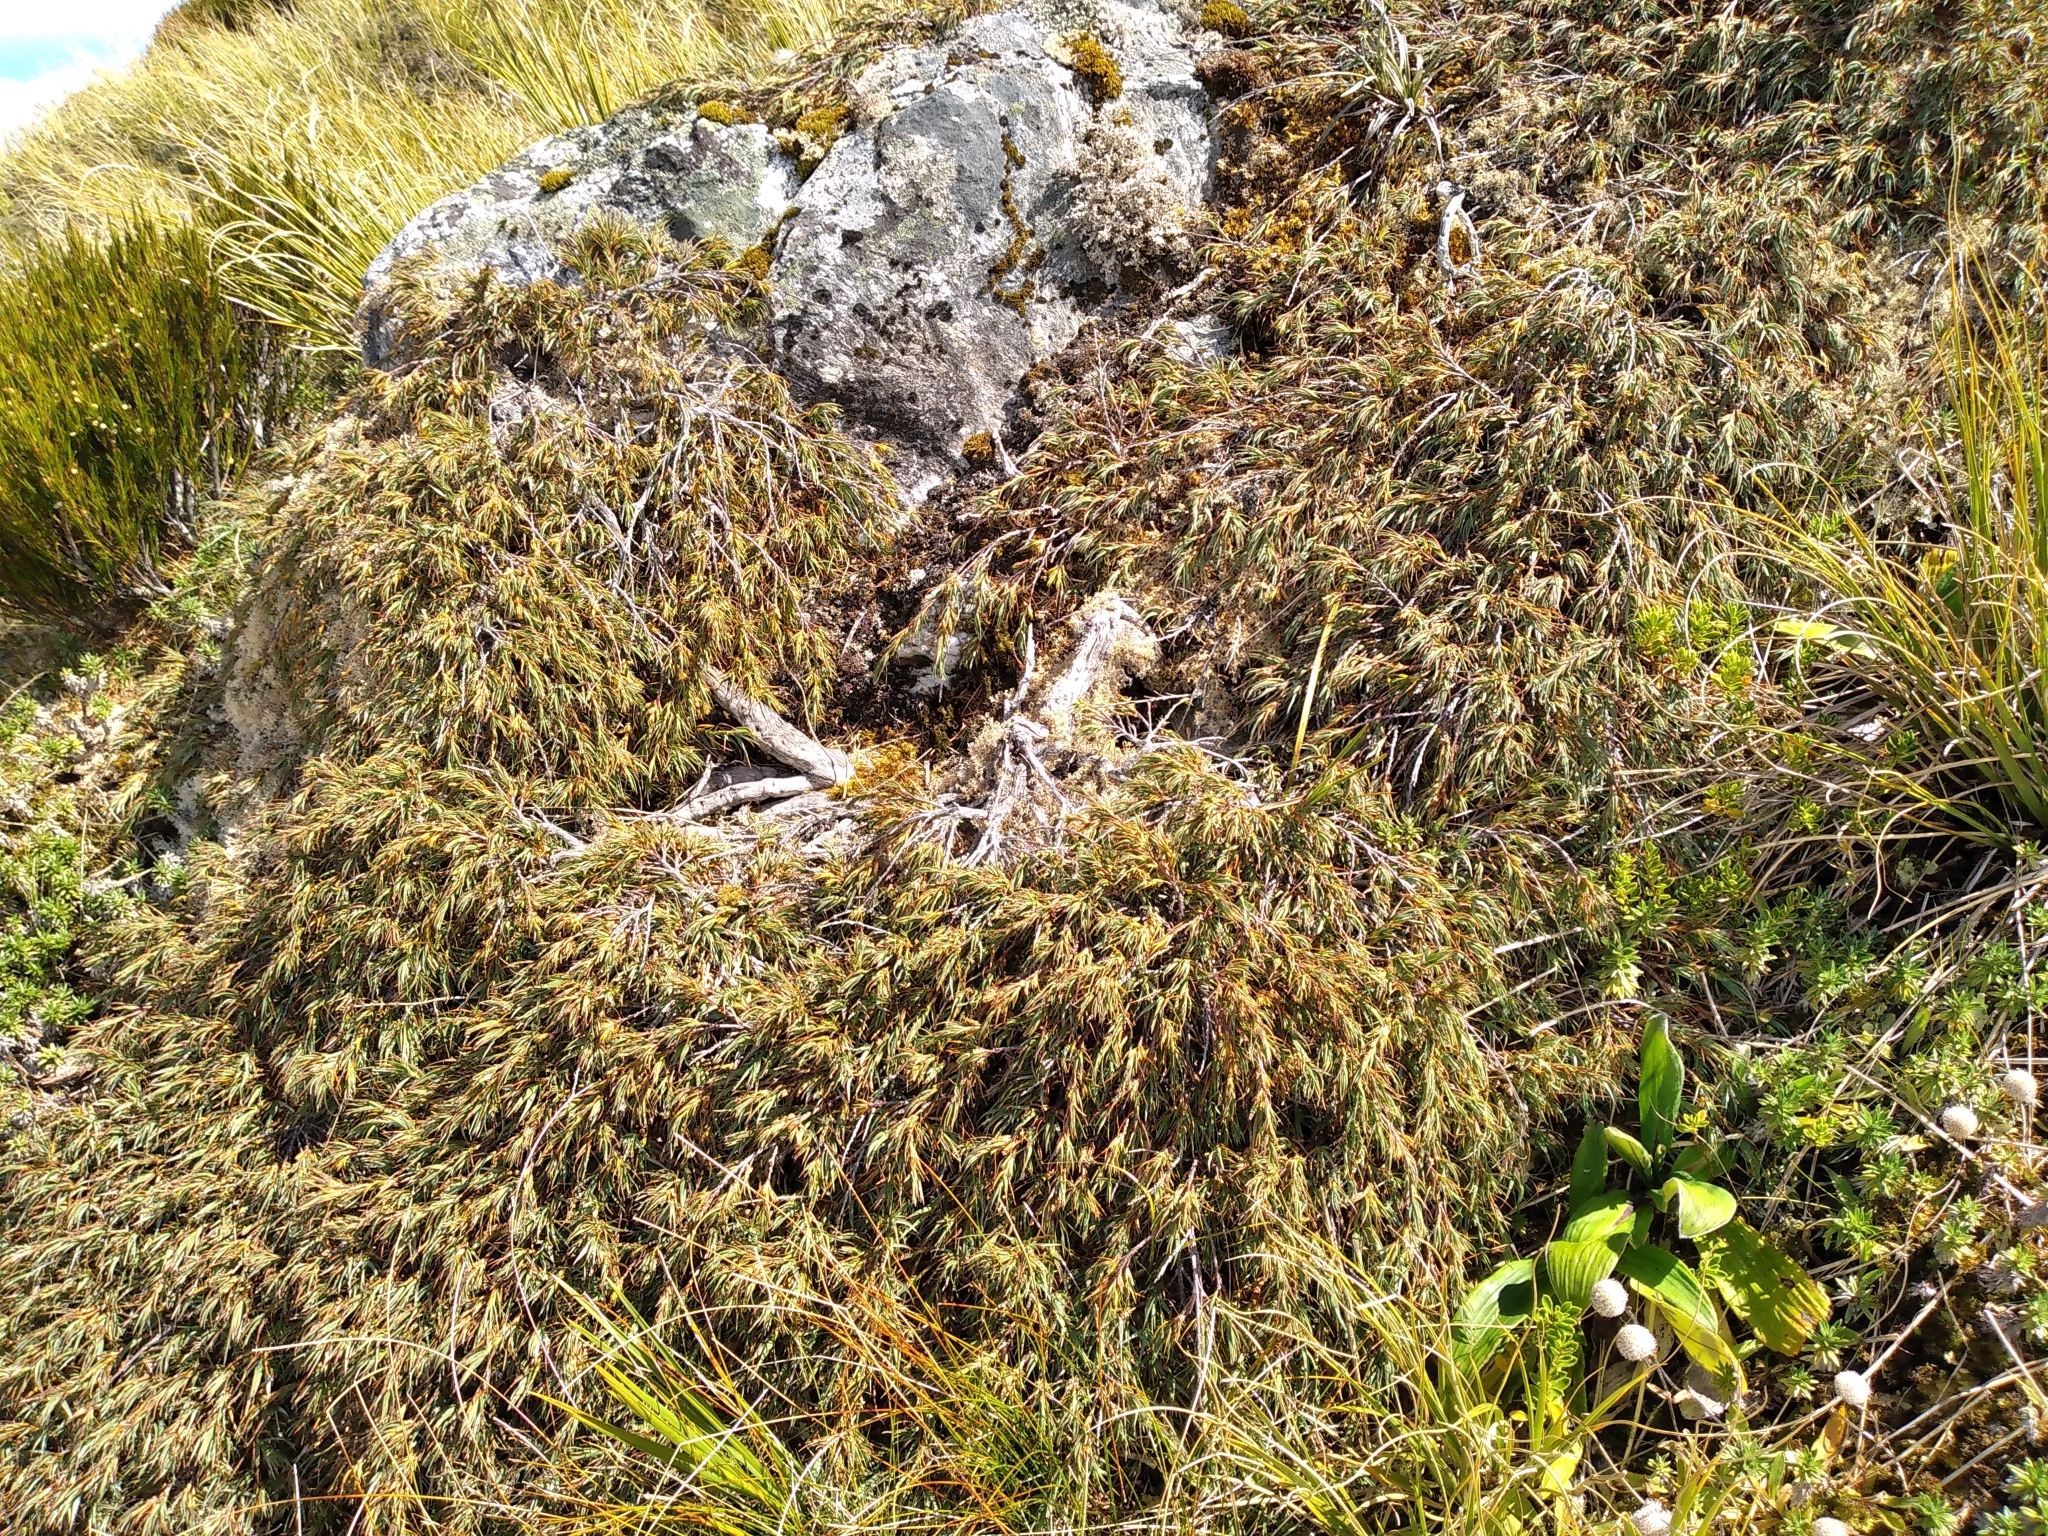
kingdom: Plantae
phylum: Tracheophyta
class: Magnoliopsida
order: Ericales
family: Ericaceae
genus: Dracophyllum
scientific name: Dracophyllum kirkii
